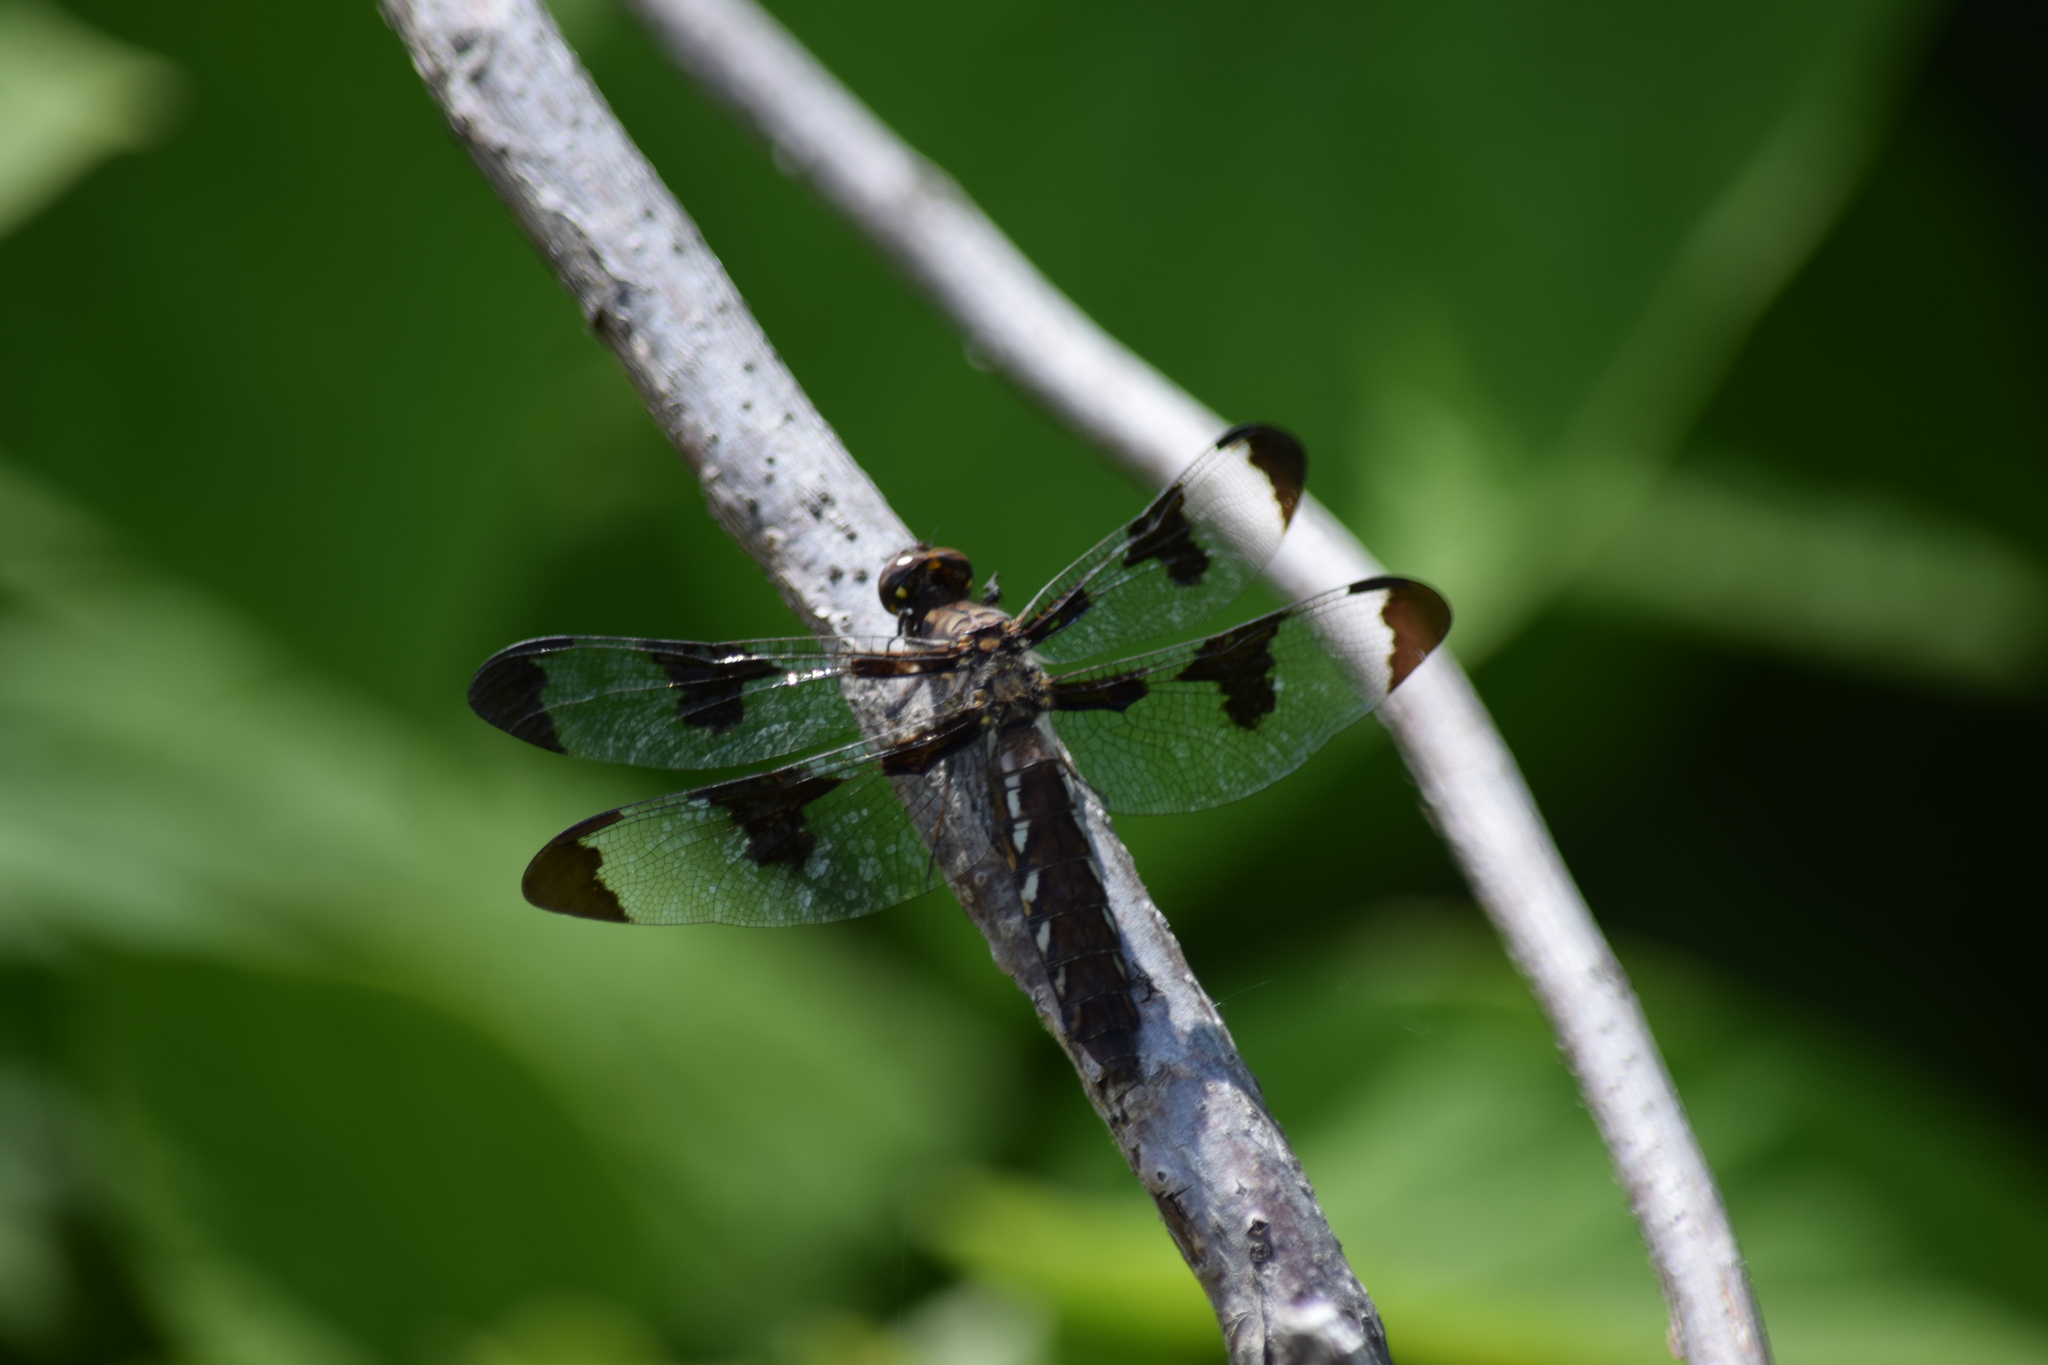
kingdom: Animalia
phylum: Arthropoda
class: Insecta
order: Odonata
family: Libellulidae
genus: Plathemis
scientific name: Plathemis lydia
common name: Common whitetail
